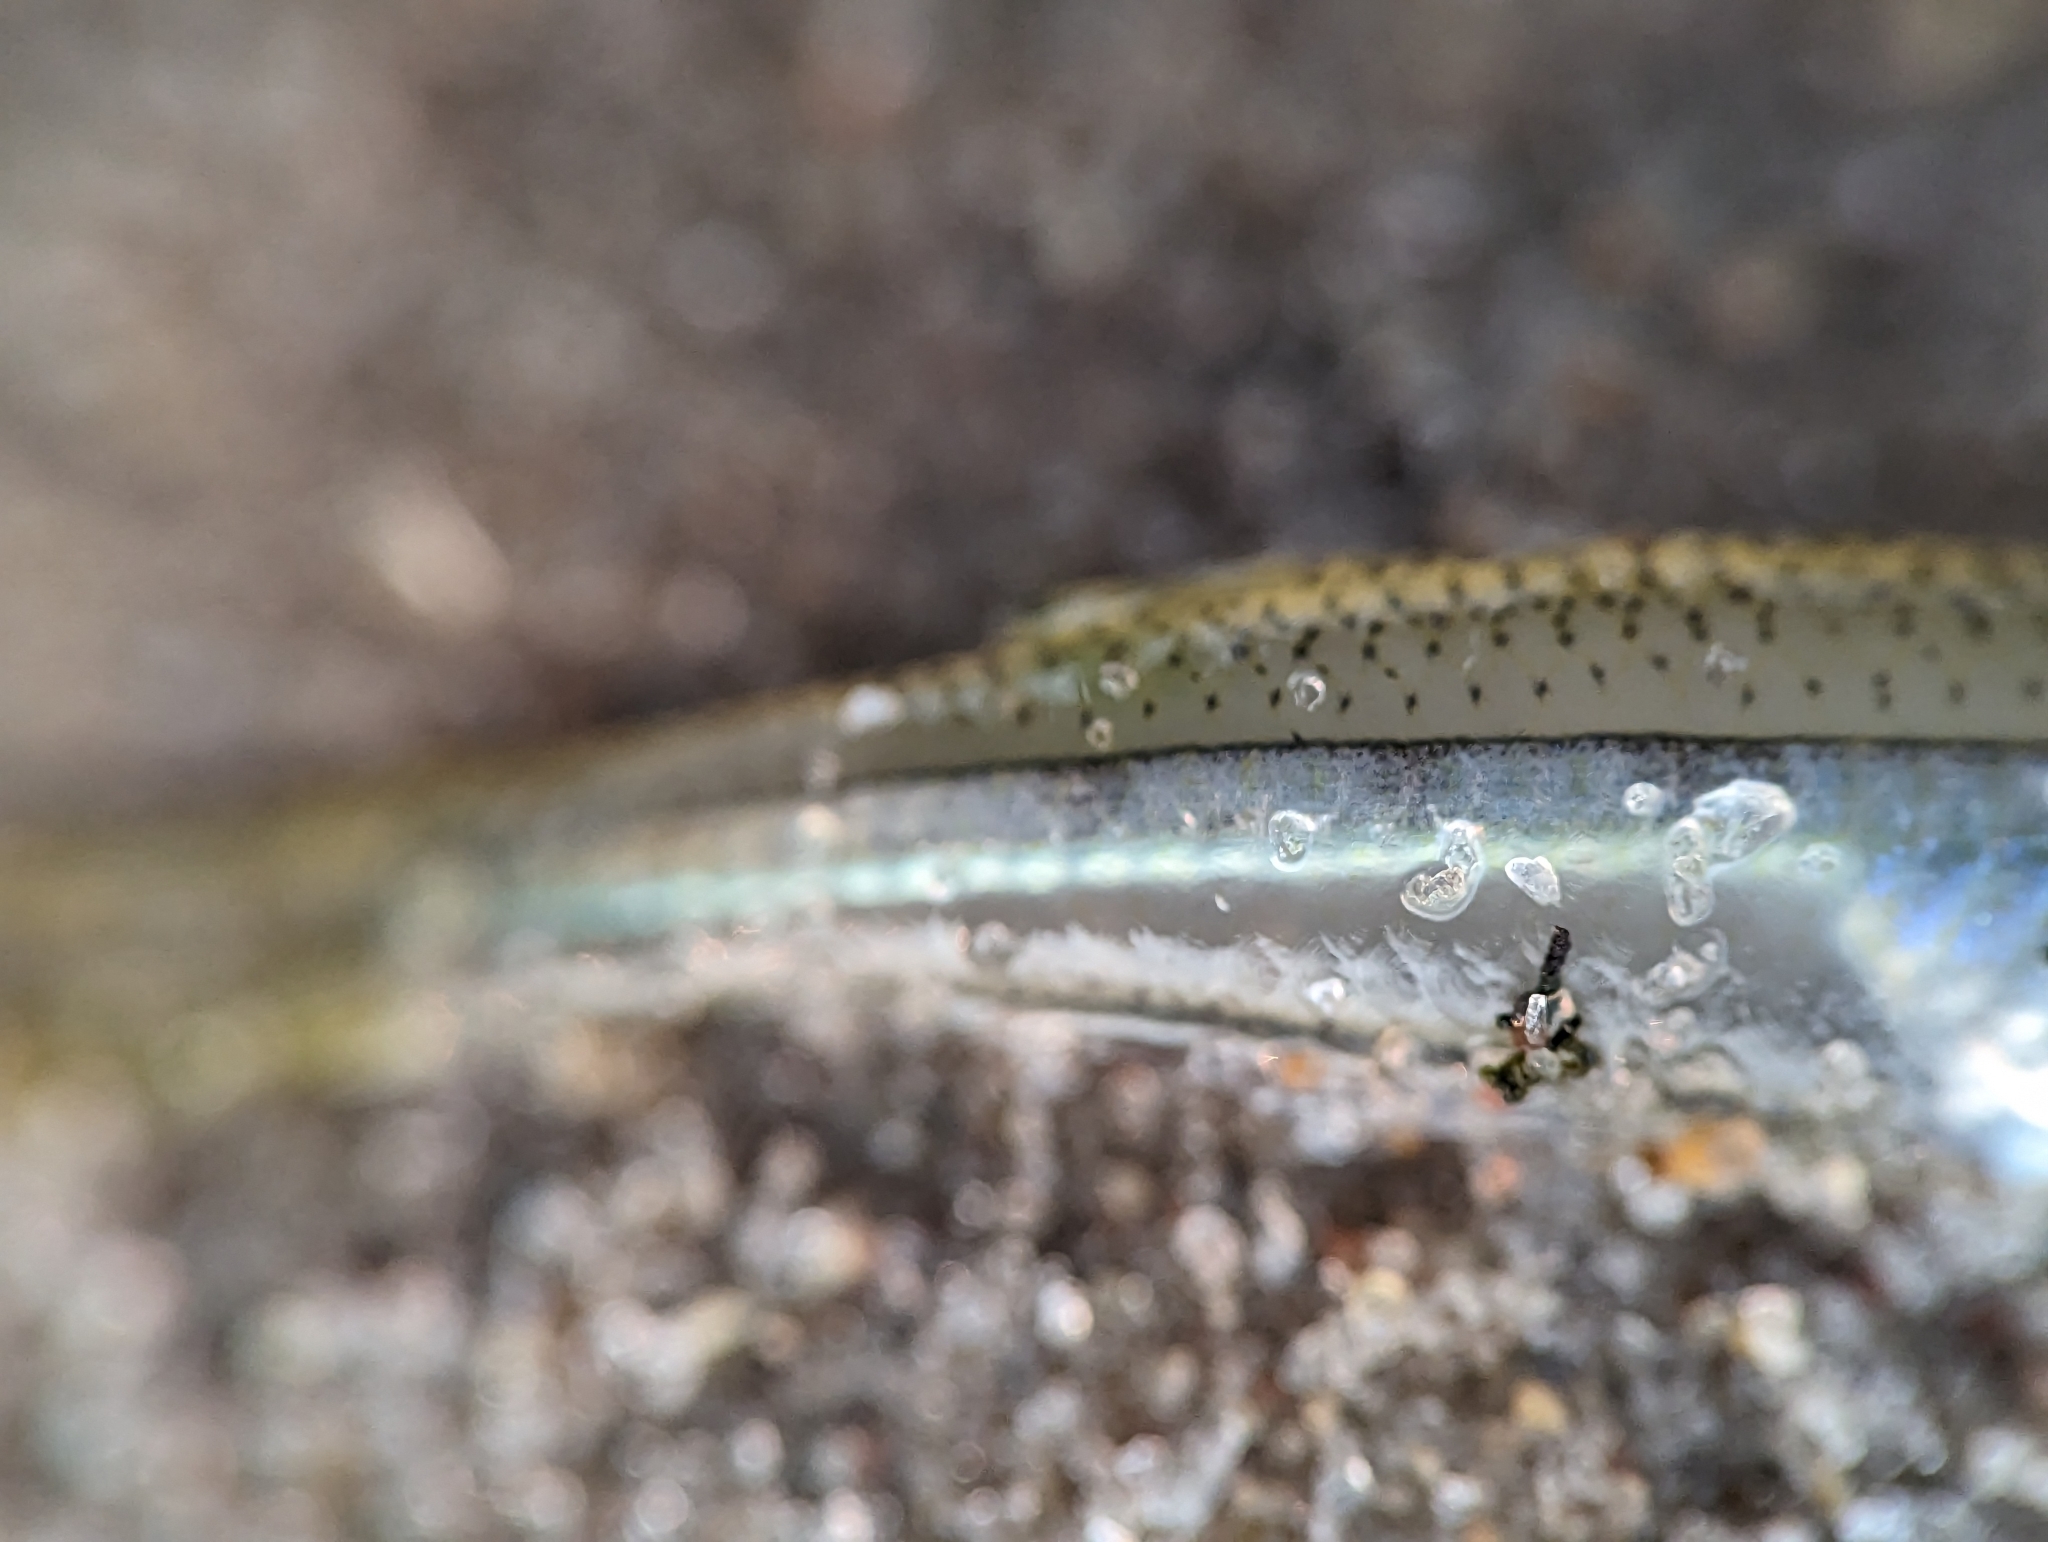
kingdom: Animalia
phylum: Chordata
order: Atheriniformes
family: Atherinopsidae
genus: Menidia
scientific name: Menidia menidia
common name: Atlantic silverside
